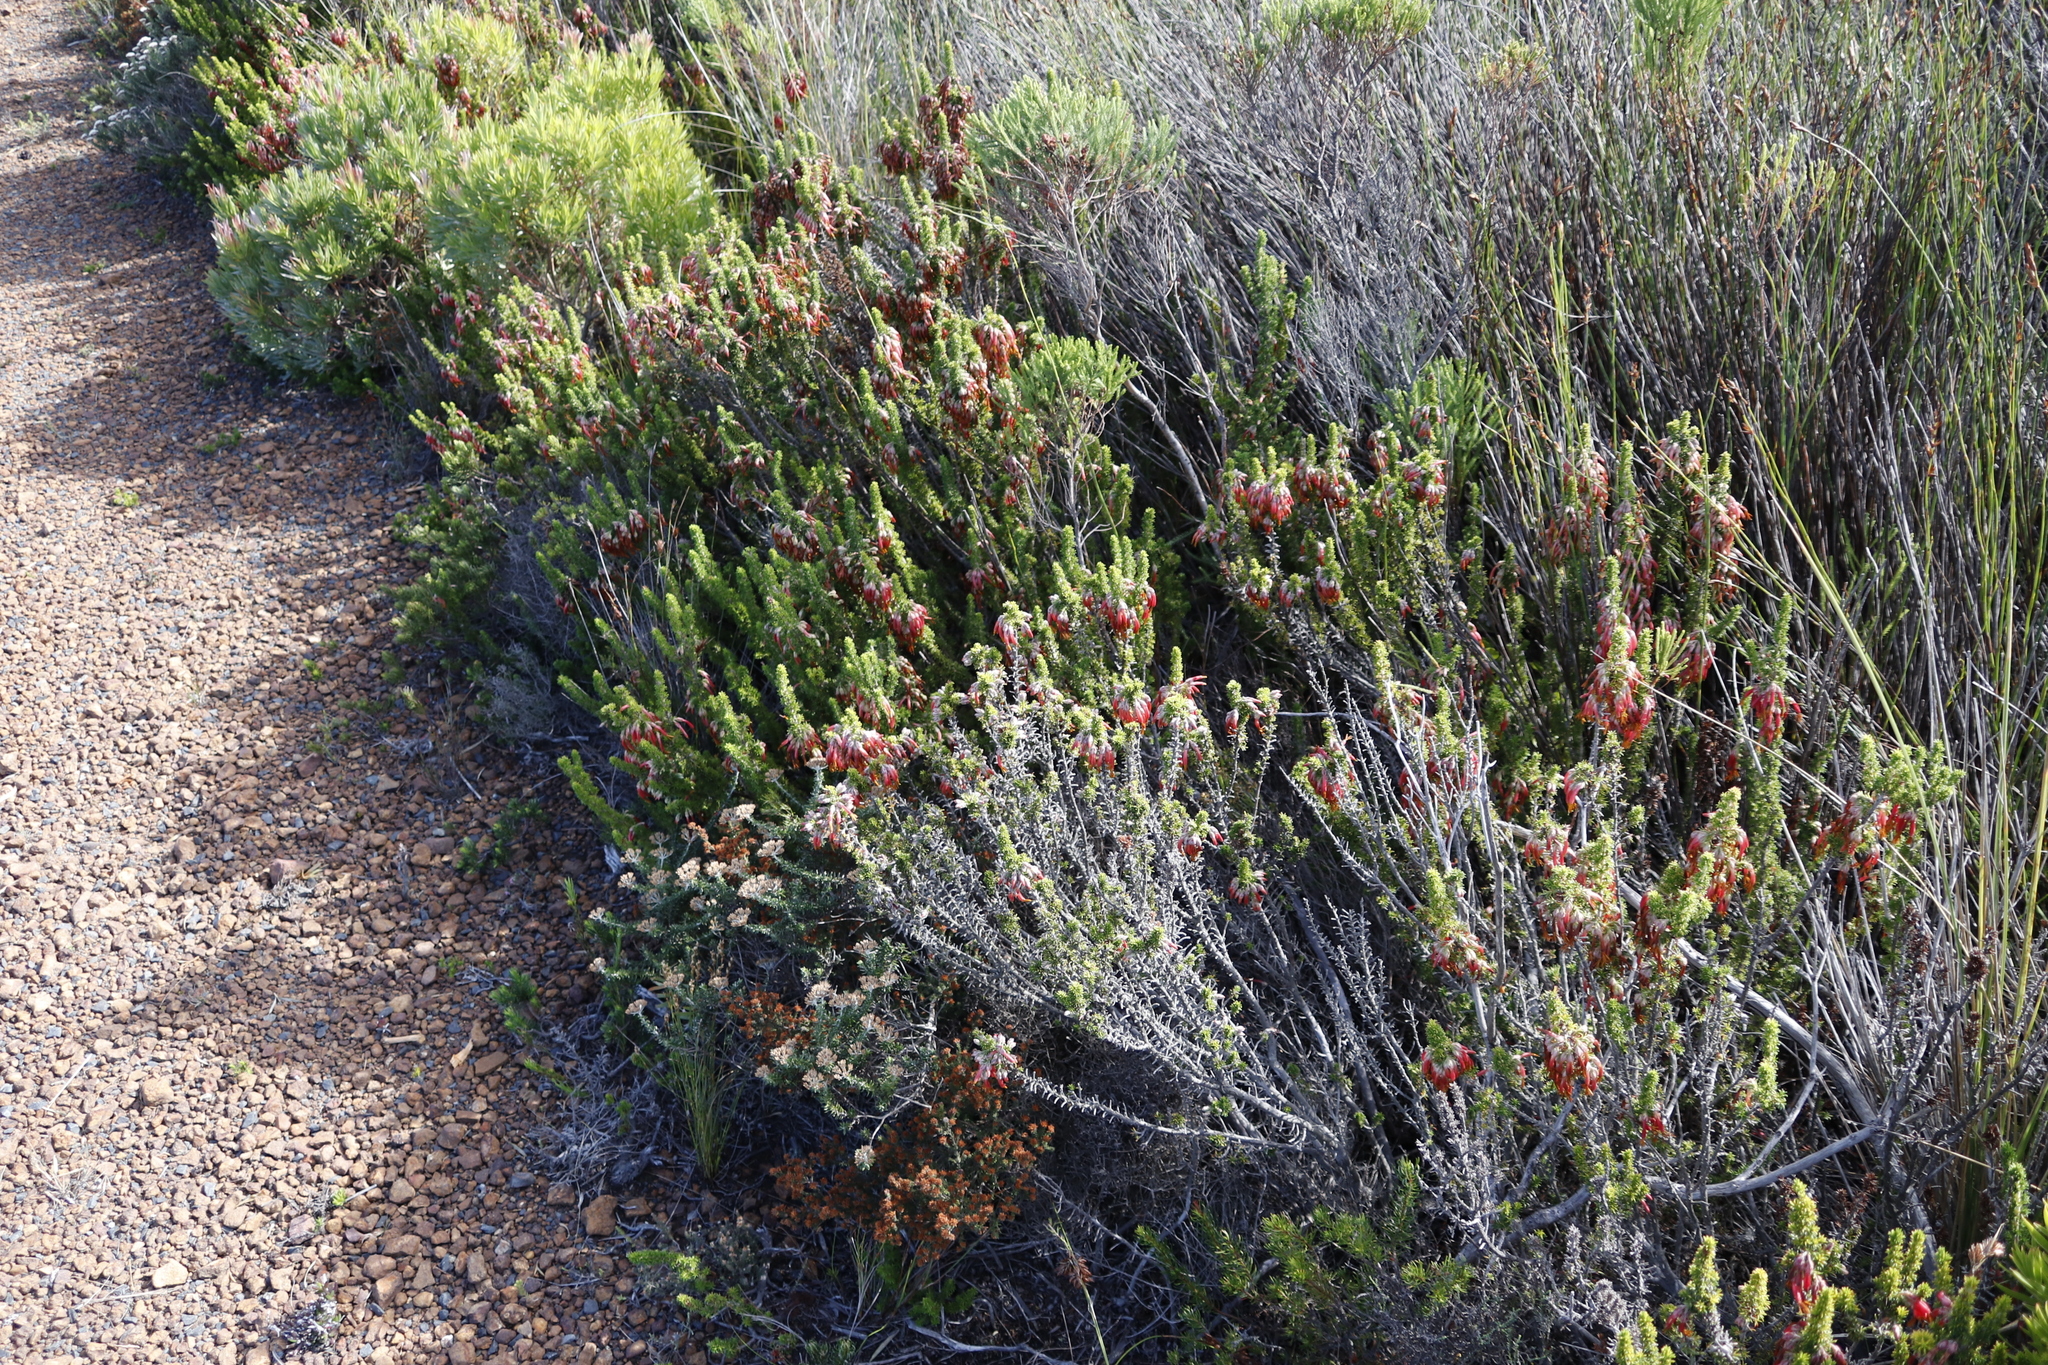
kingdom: Plantae
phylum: Tracheophyta
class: Magnoliopsida
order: Ericales
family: Ericaceae
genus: Erica
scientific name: Erica coccinea
